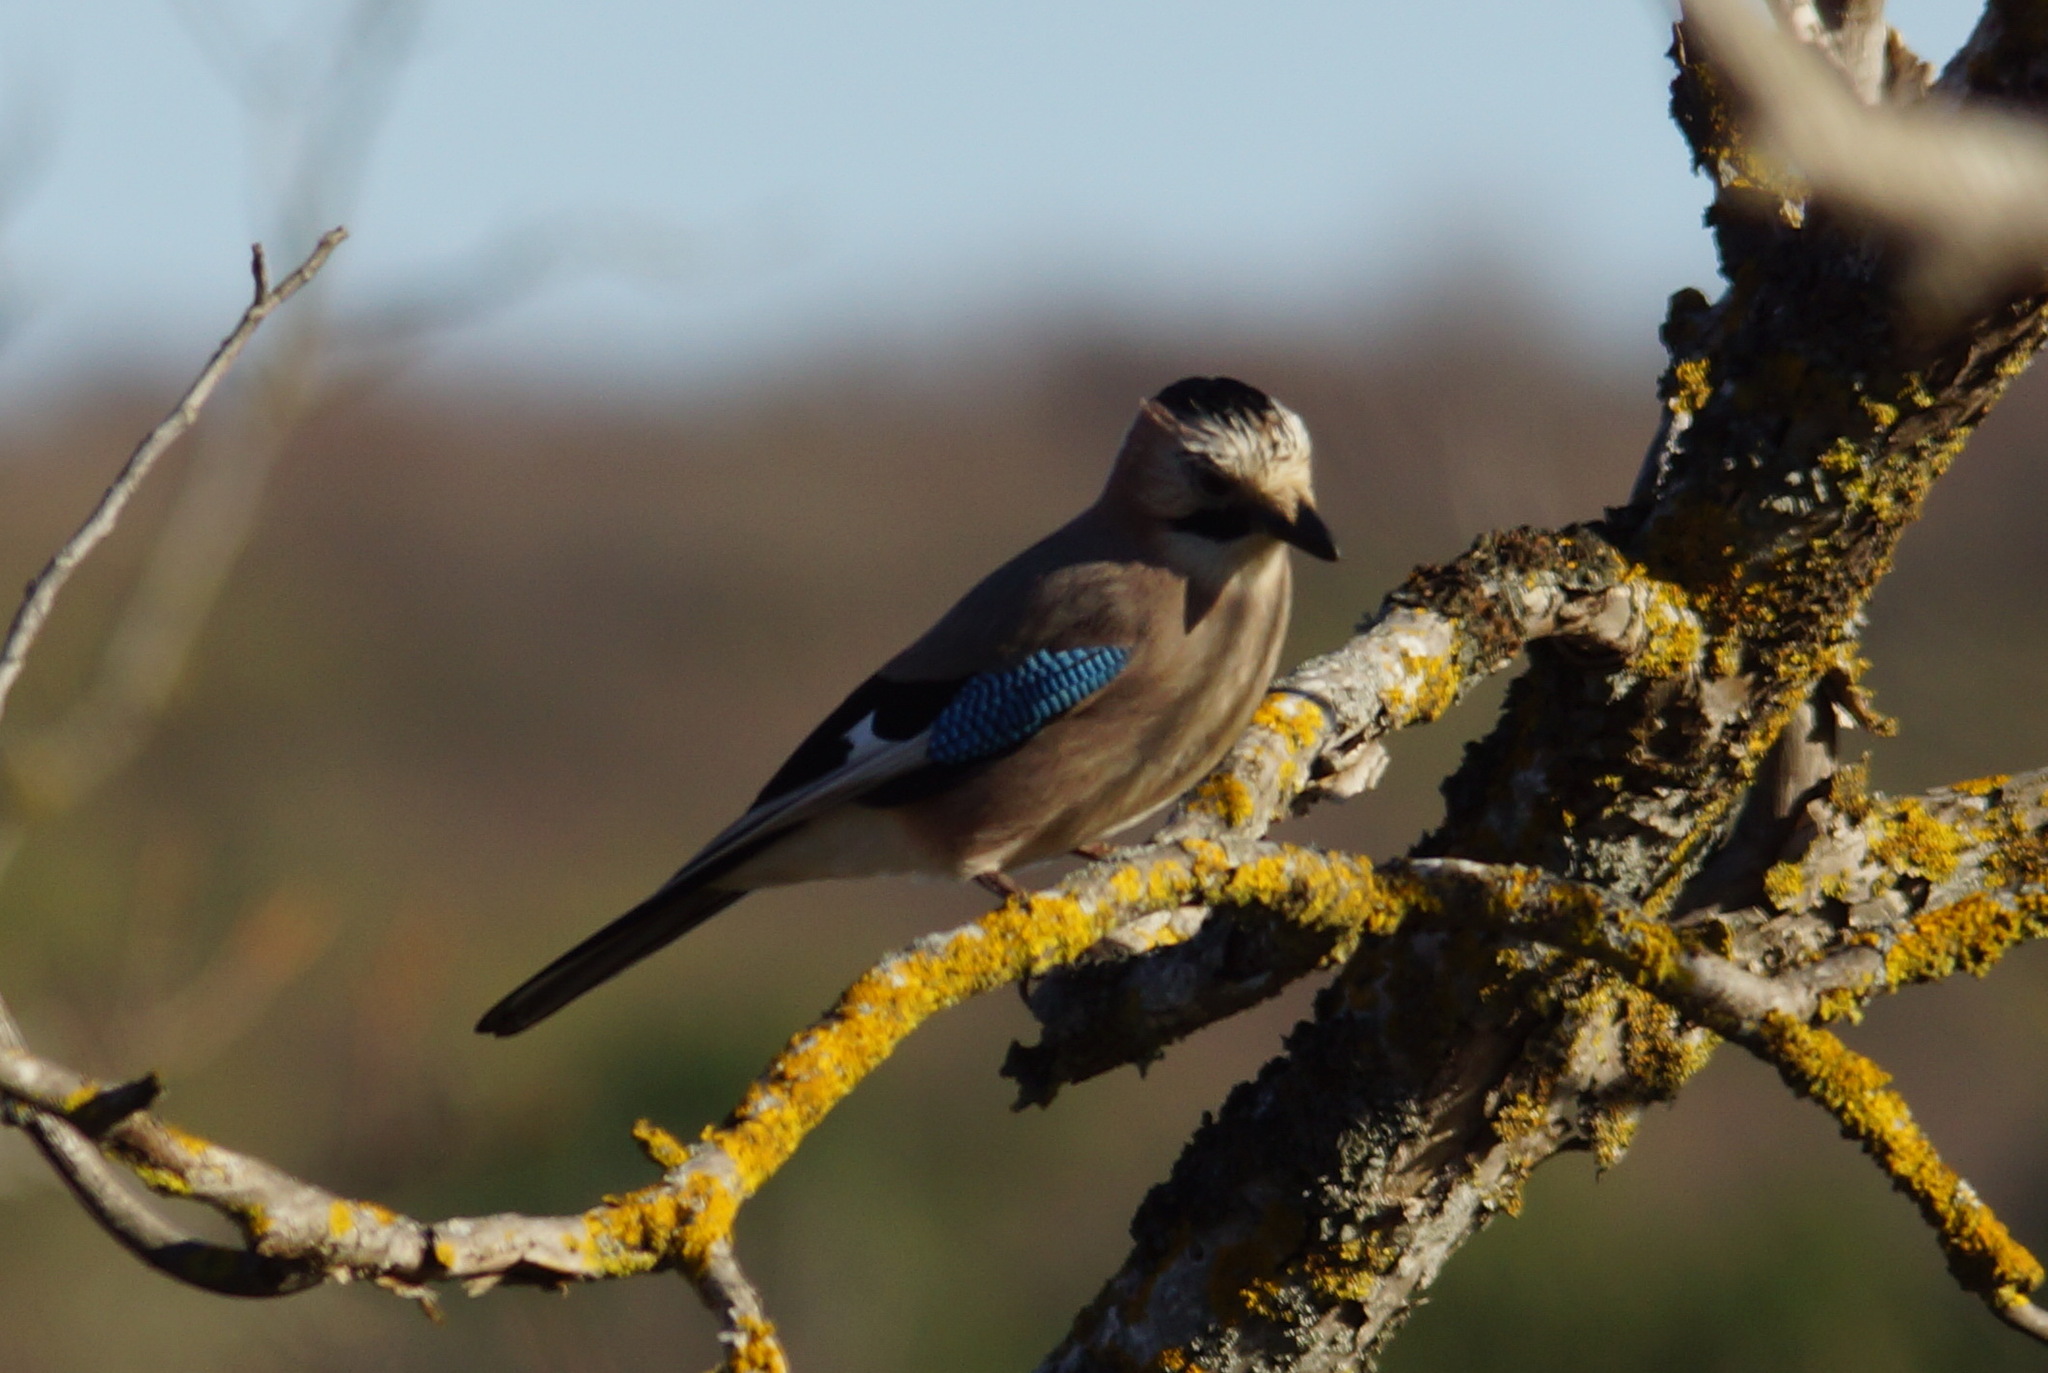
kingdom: Animalia
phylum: Chordata
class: Aves
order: Passeriformes
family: Corvidae
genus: Garrulus
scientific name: Garrulus glandarius
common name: Eurasian jay
